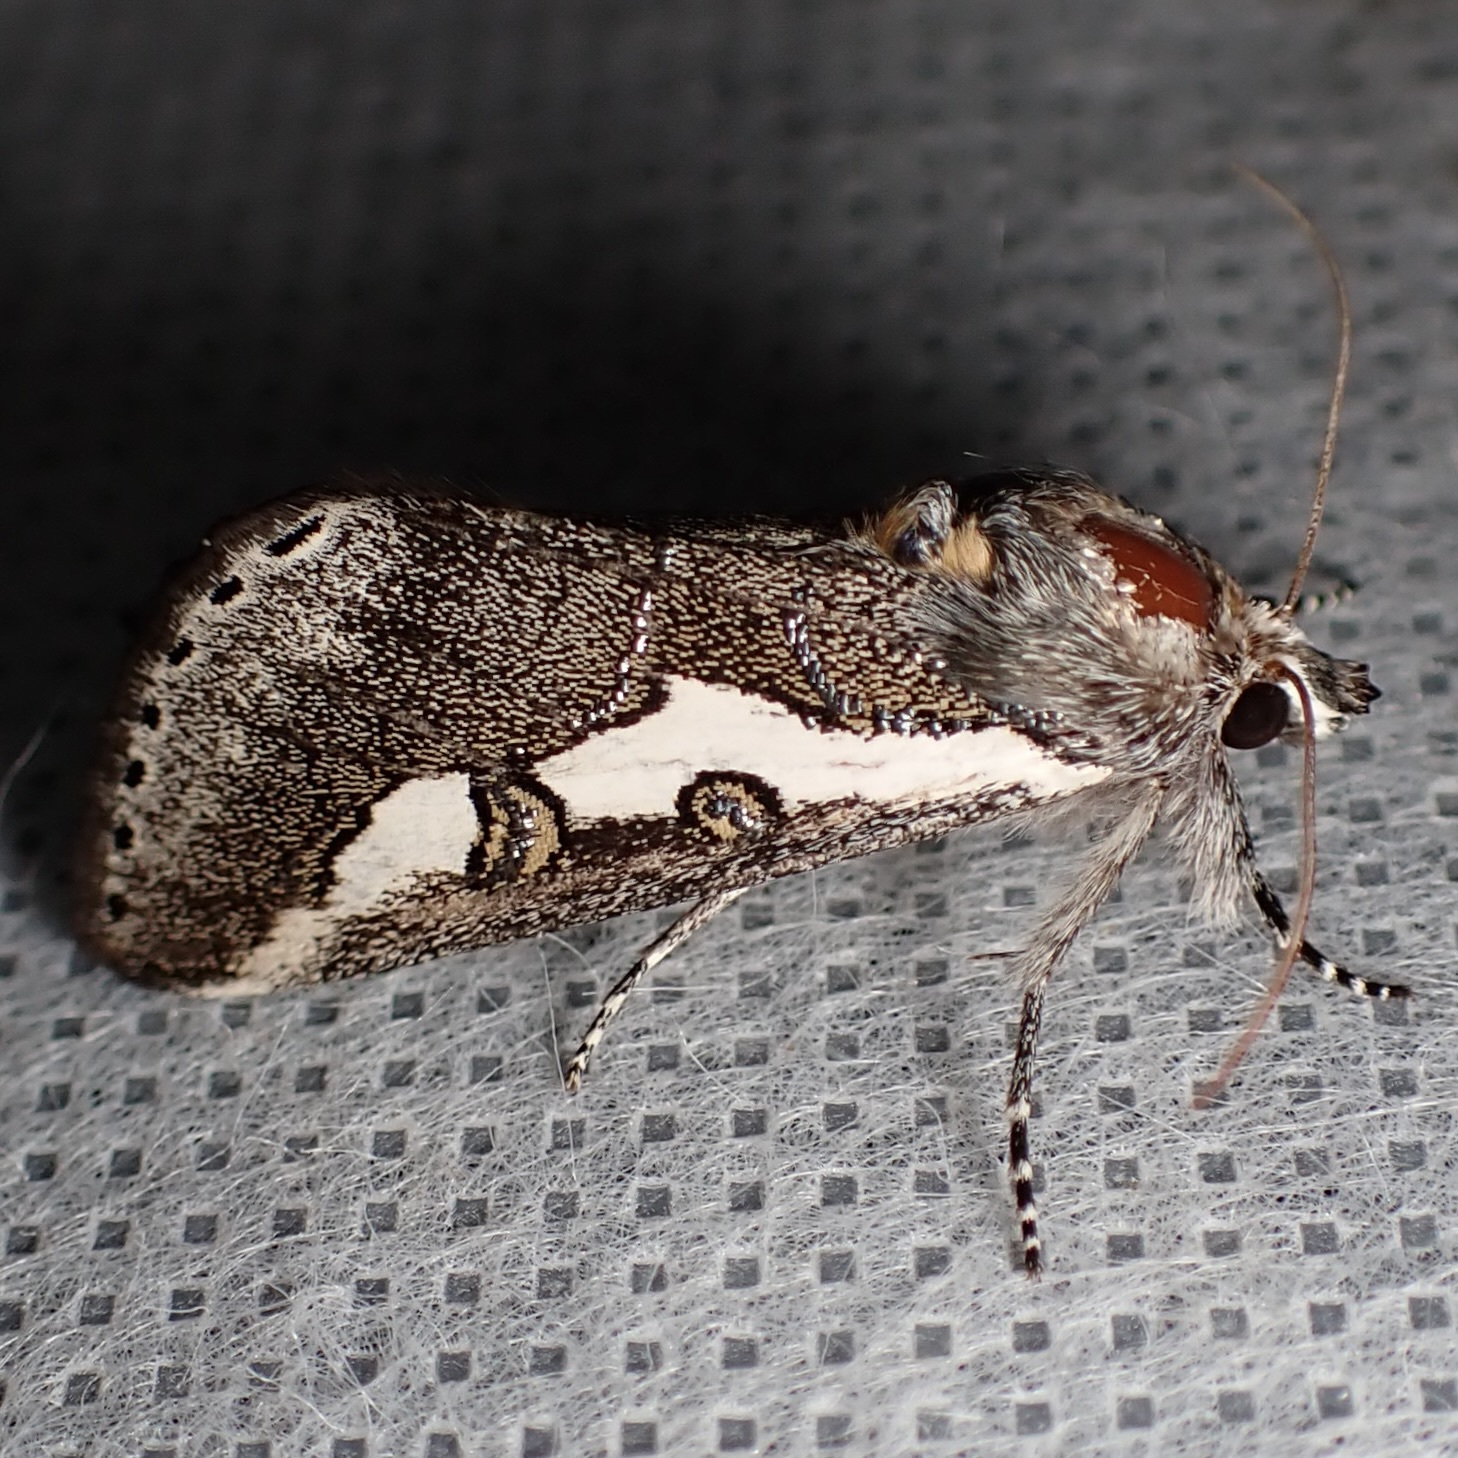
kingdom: Animalia
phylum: Arthropoda
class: Insecta
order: Lepidoptera
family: Noctuidae
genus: Euscirrhopterus
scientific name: Euscirrhopterus gloveri
